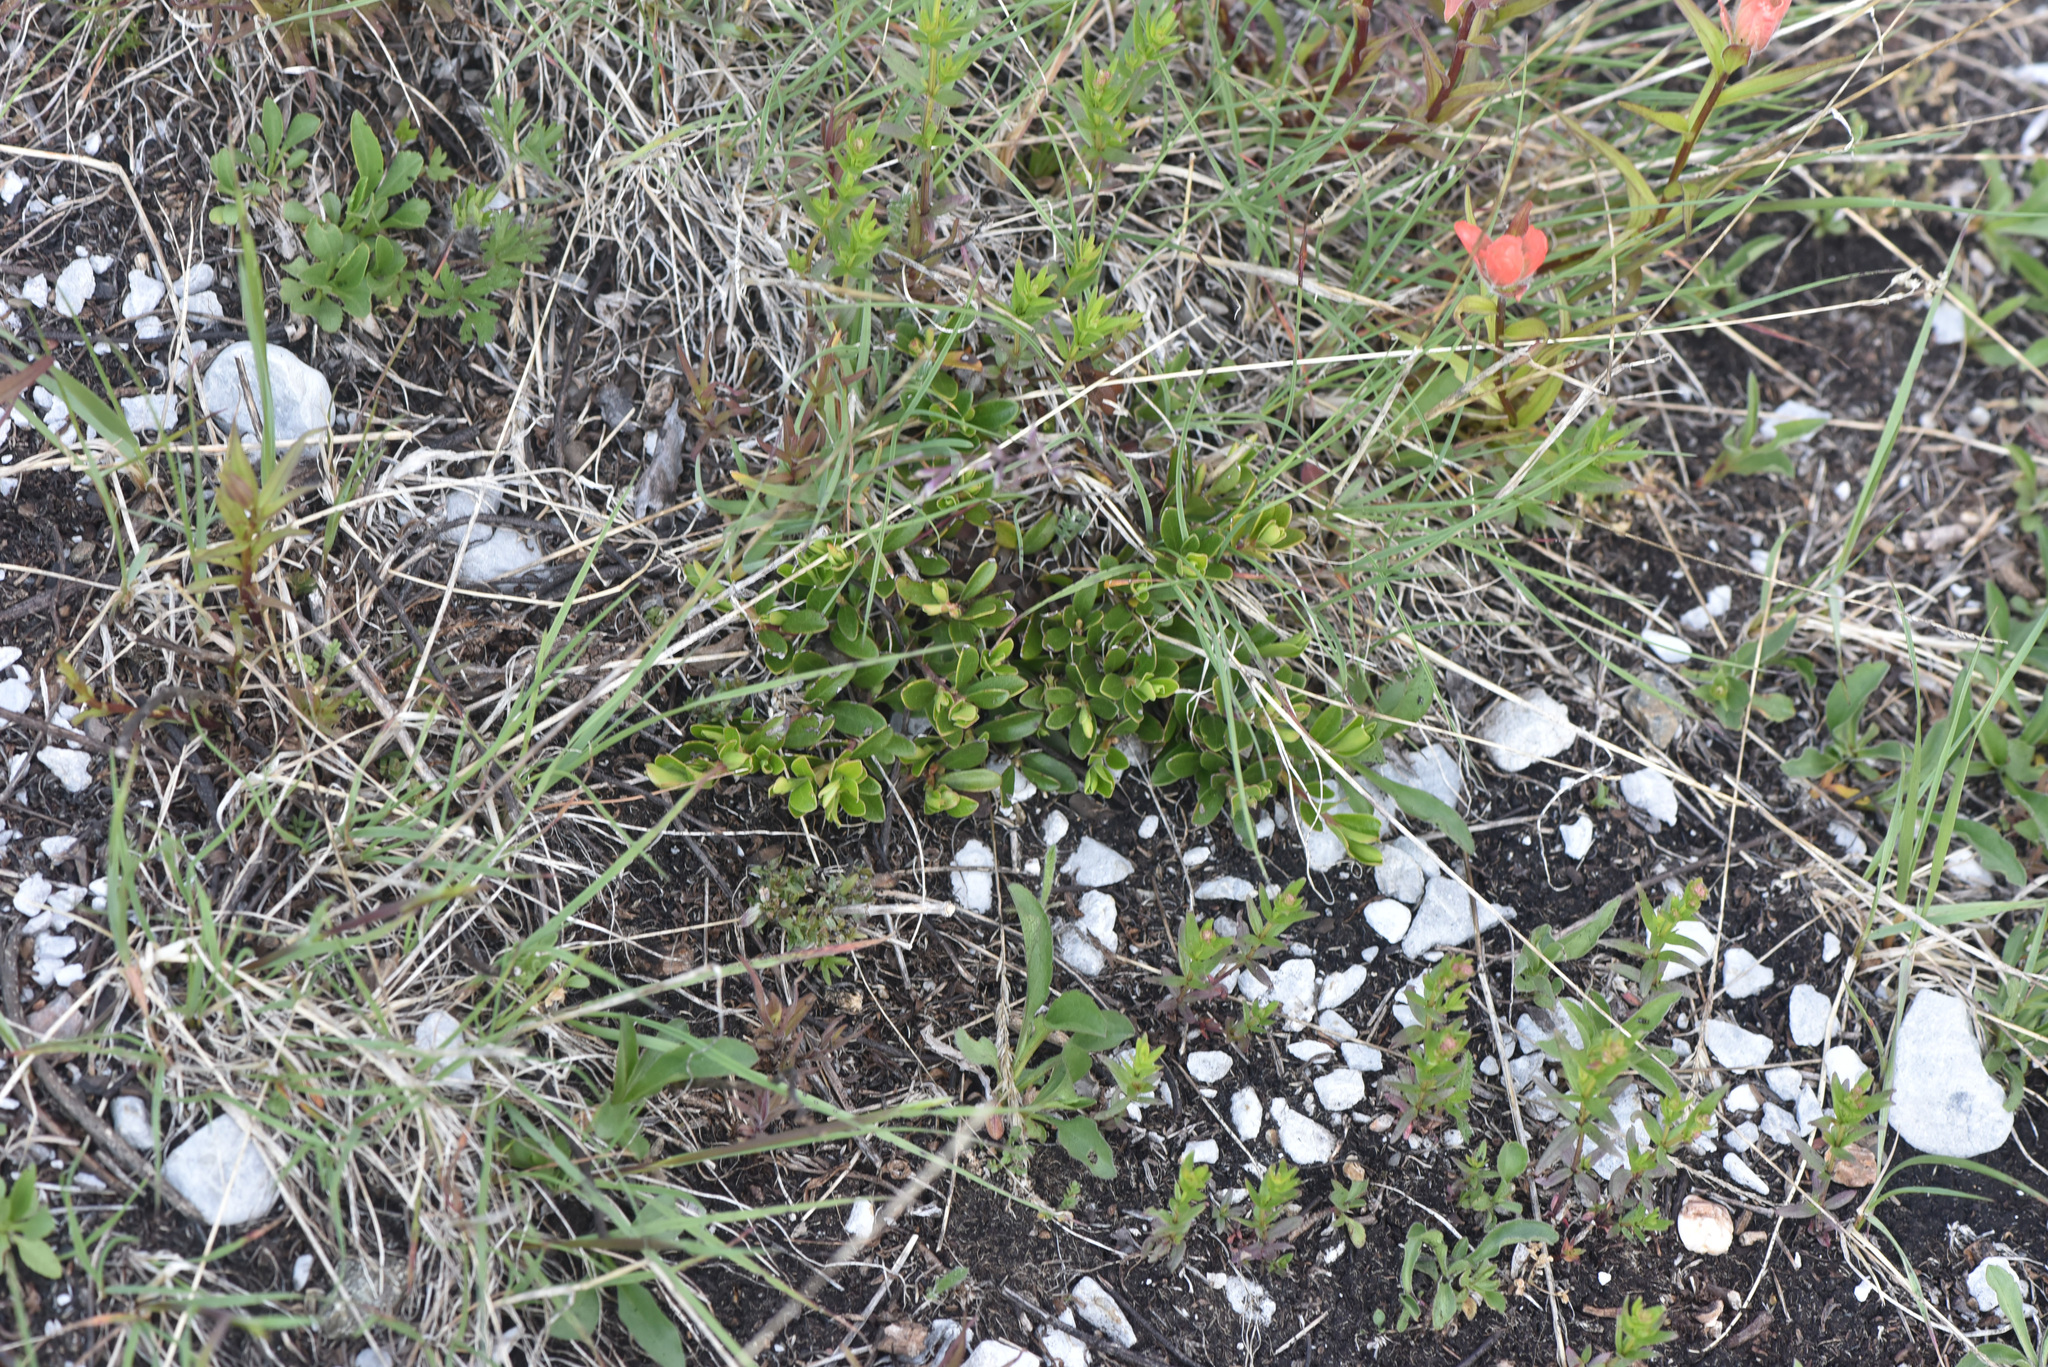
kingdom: Plantae
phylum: Tracheophyta
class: Magnoliopsida
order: Ericales
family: Ericaceae
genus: Arctostaphylos
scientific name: Arctostaphylos uva-ursi
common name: Bearberry
